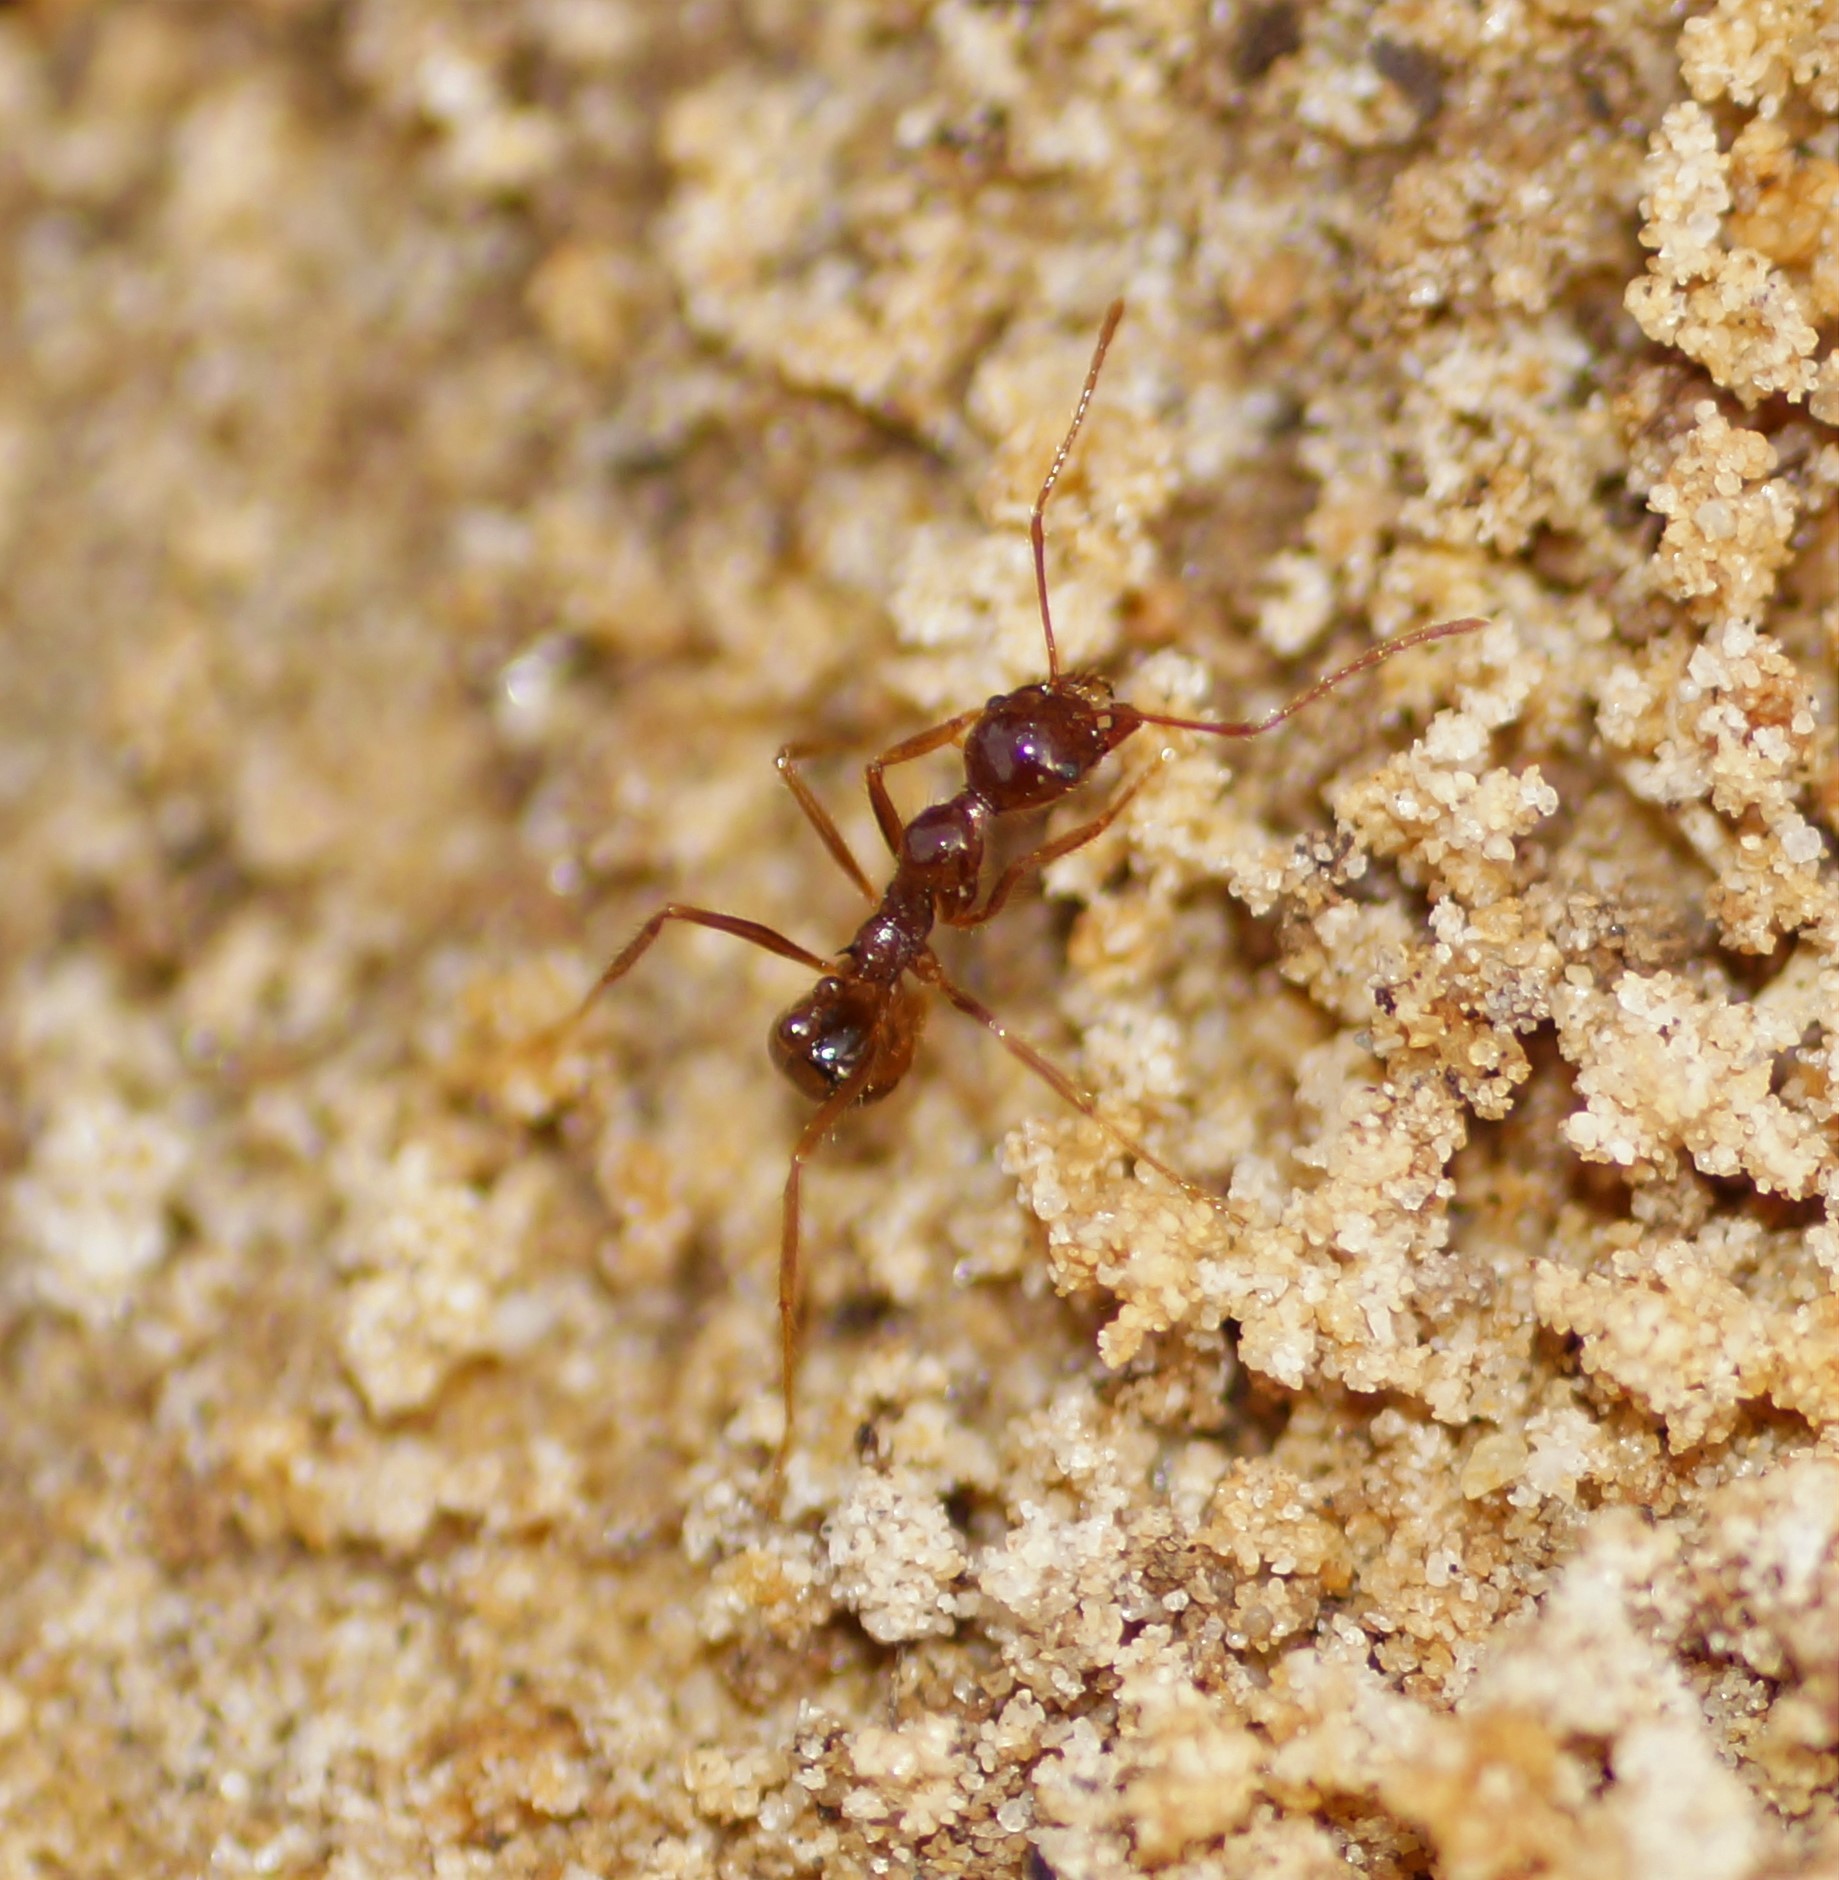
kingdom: Animalia
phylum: Arthropoda
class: Insecta
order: Hymenoptera
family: Formicidae
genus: Aphaenogaster
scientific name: Aphaenogaster longiceps
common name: Funnel ant
